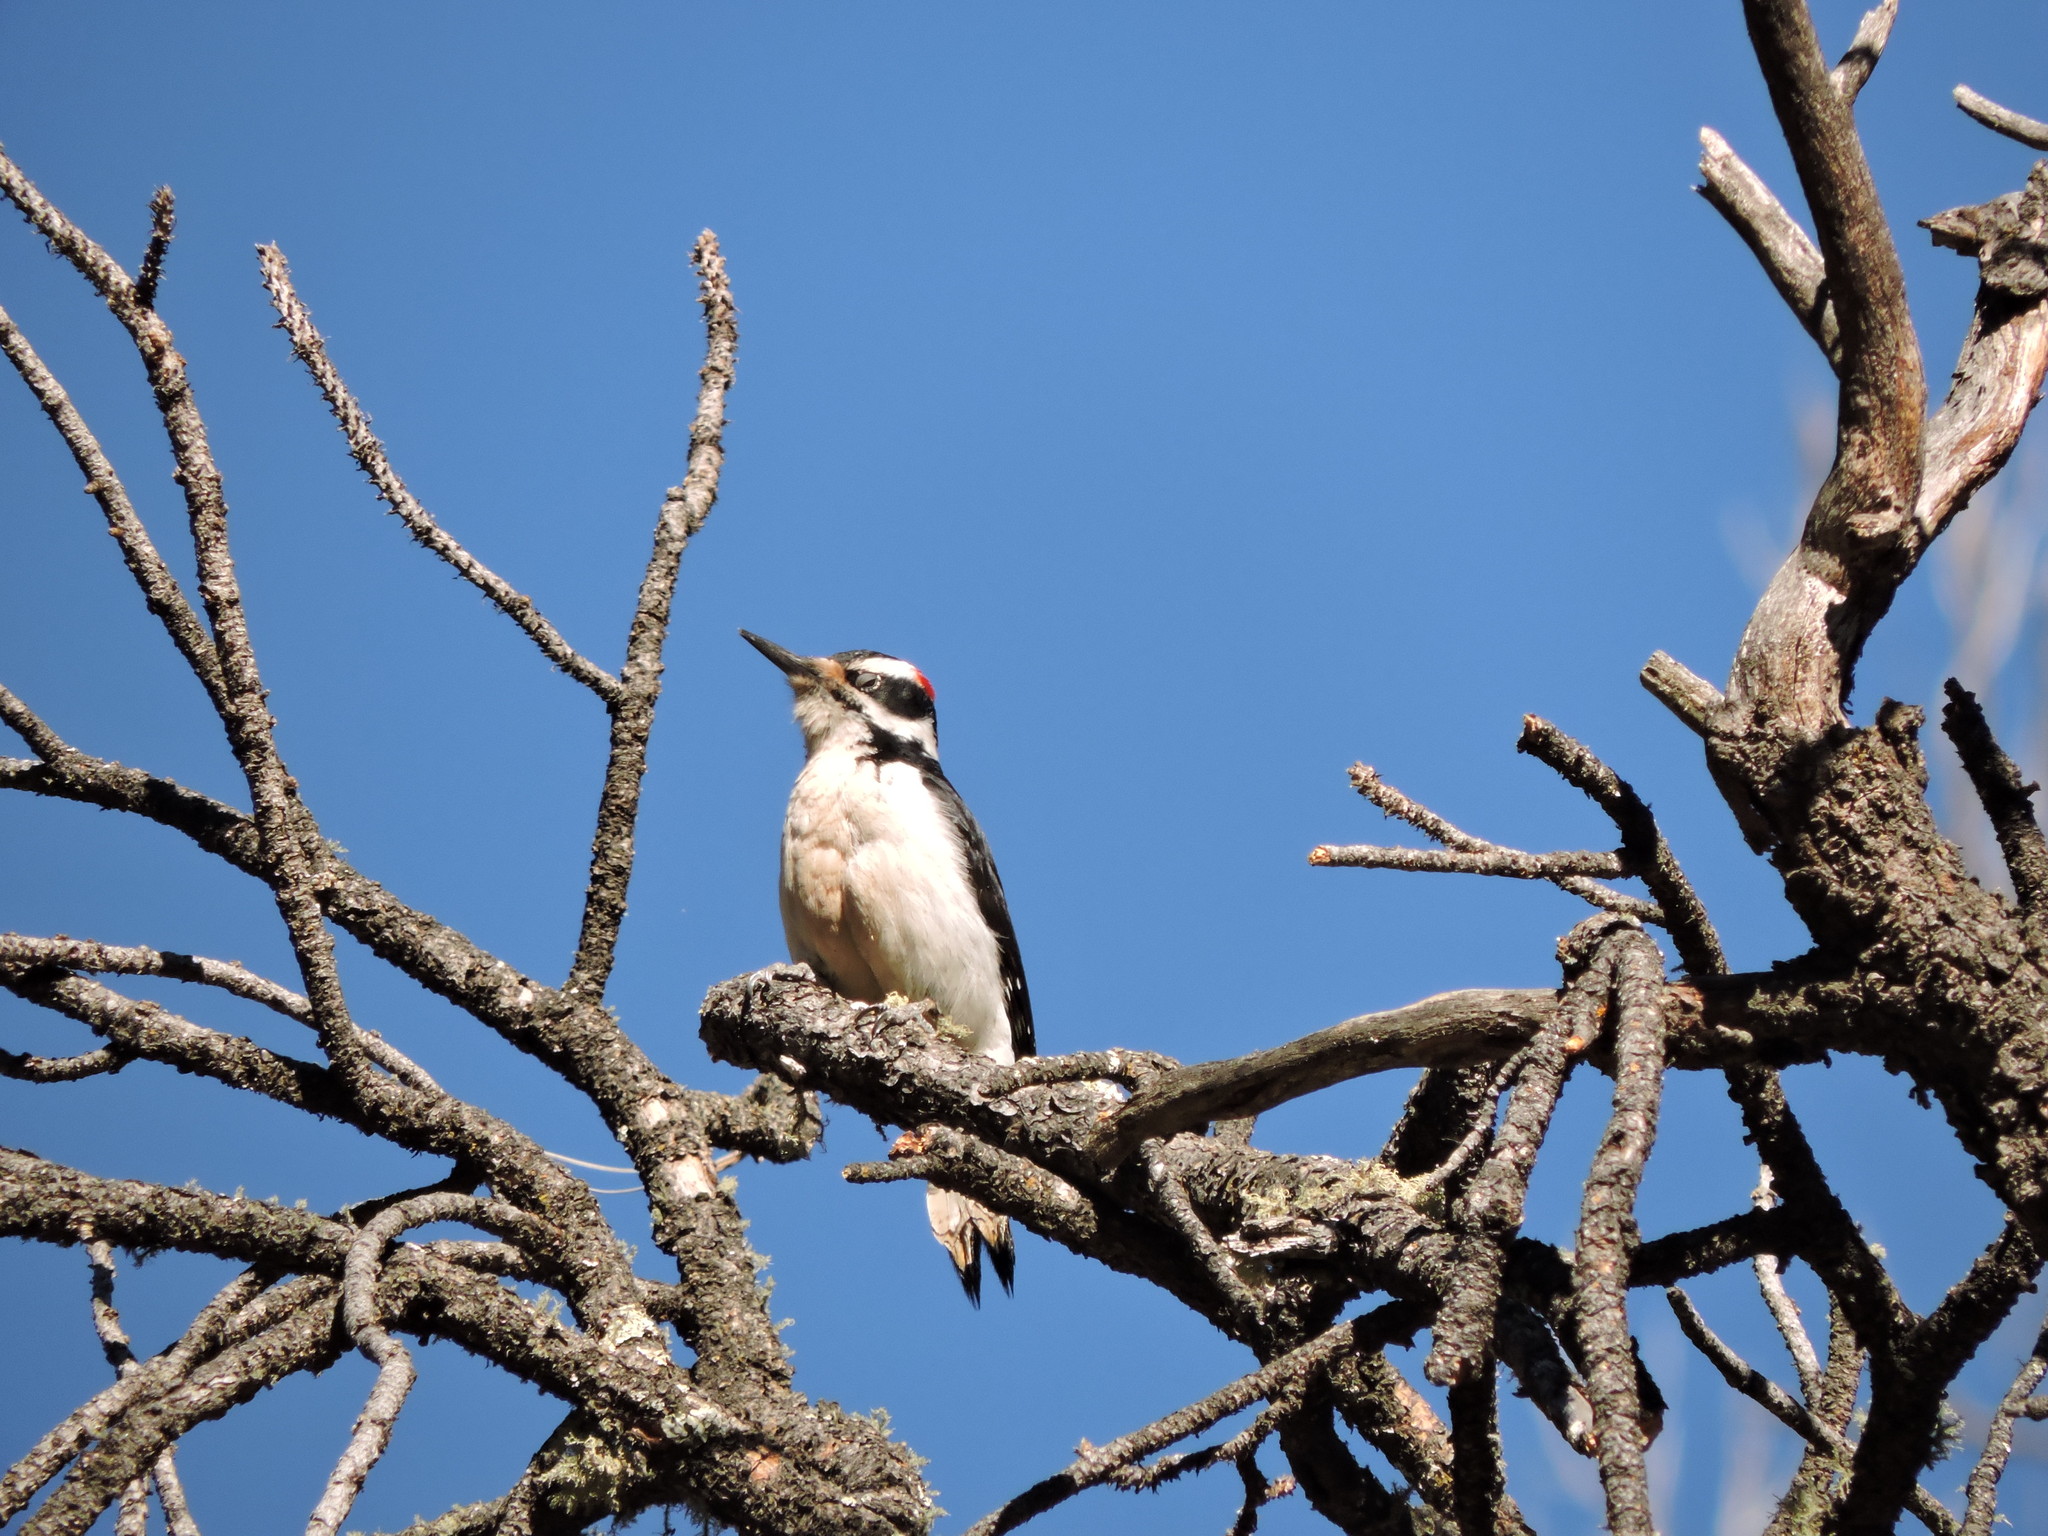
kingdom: Animalia
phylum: Chordata
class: Aves
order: Piciformes
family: Picidae
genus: Leuconotopicus
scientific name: Leuconotopicus villosus
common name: Hairy woodpecker
